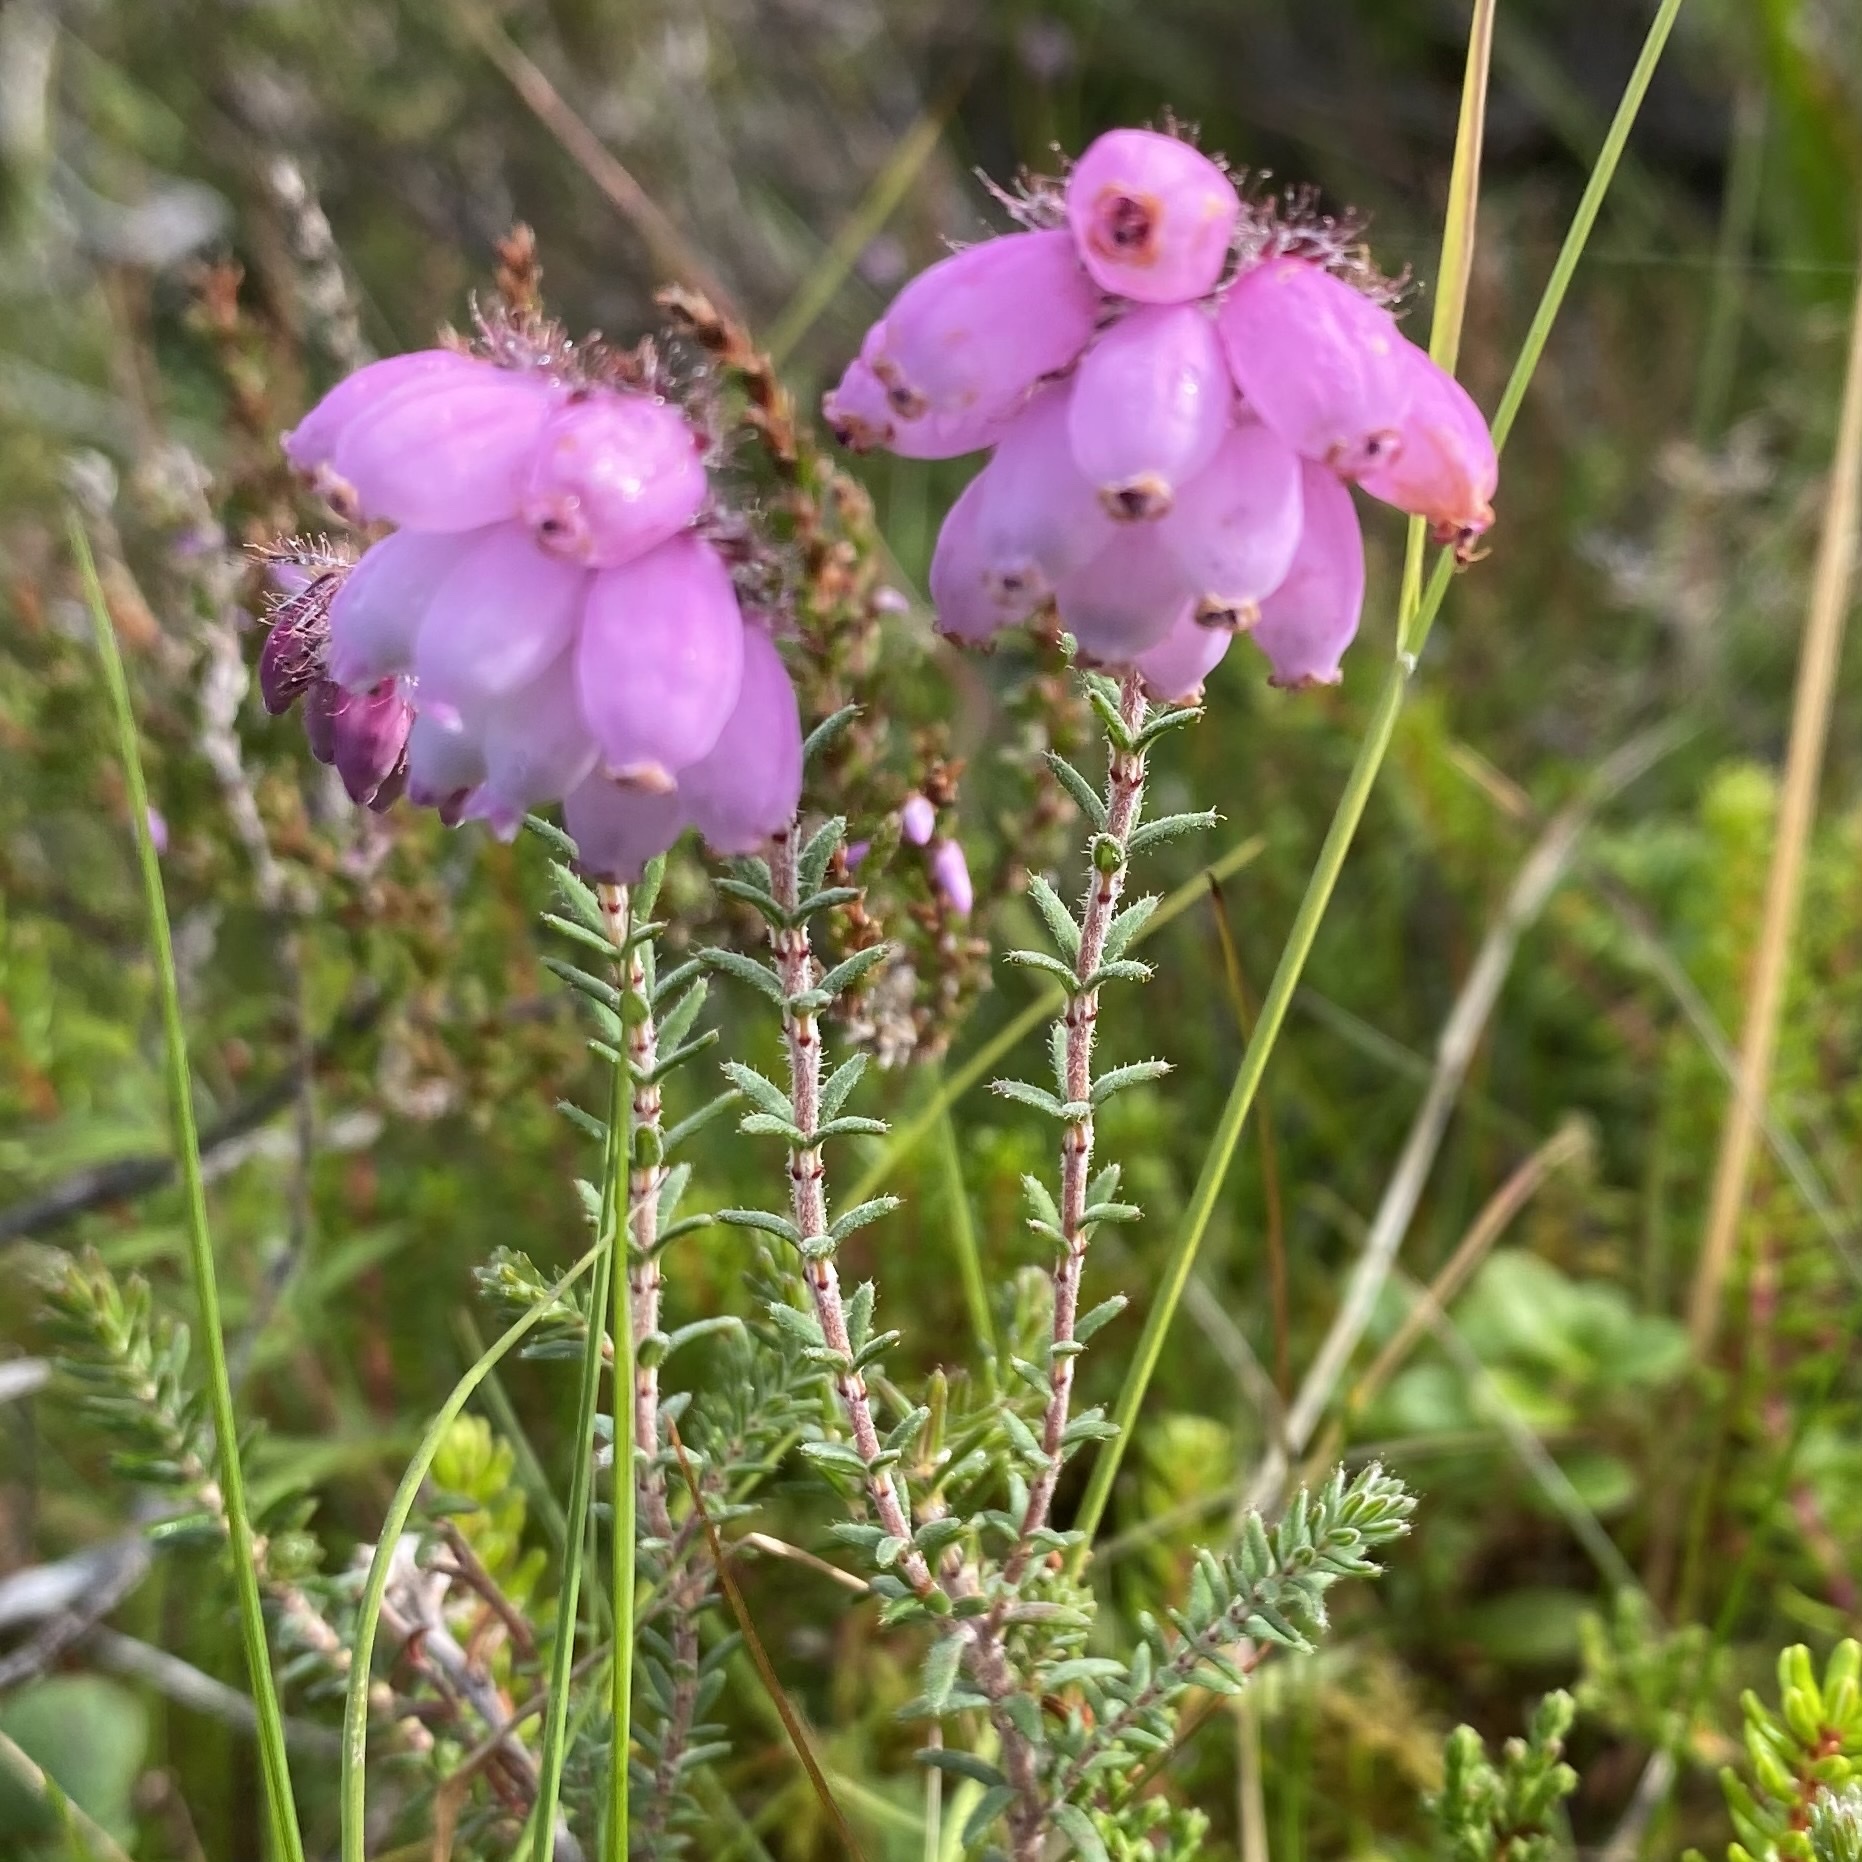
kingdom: Plantae
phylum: Tracheophyta
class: Magnoliopsida
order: Ericales
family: Ericaceae
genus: Erica
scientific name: Erica tetralix
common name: Cross-leaved heath
